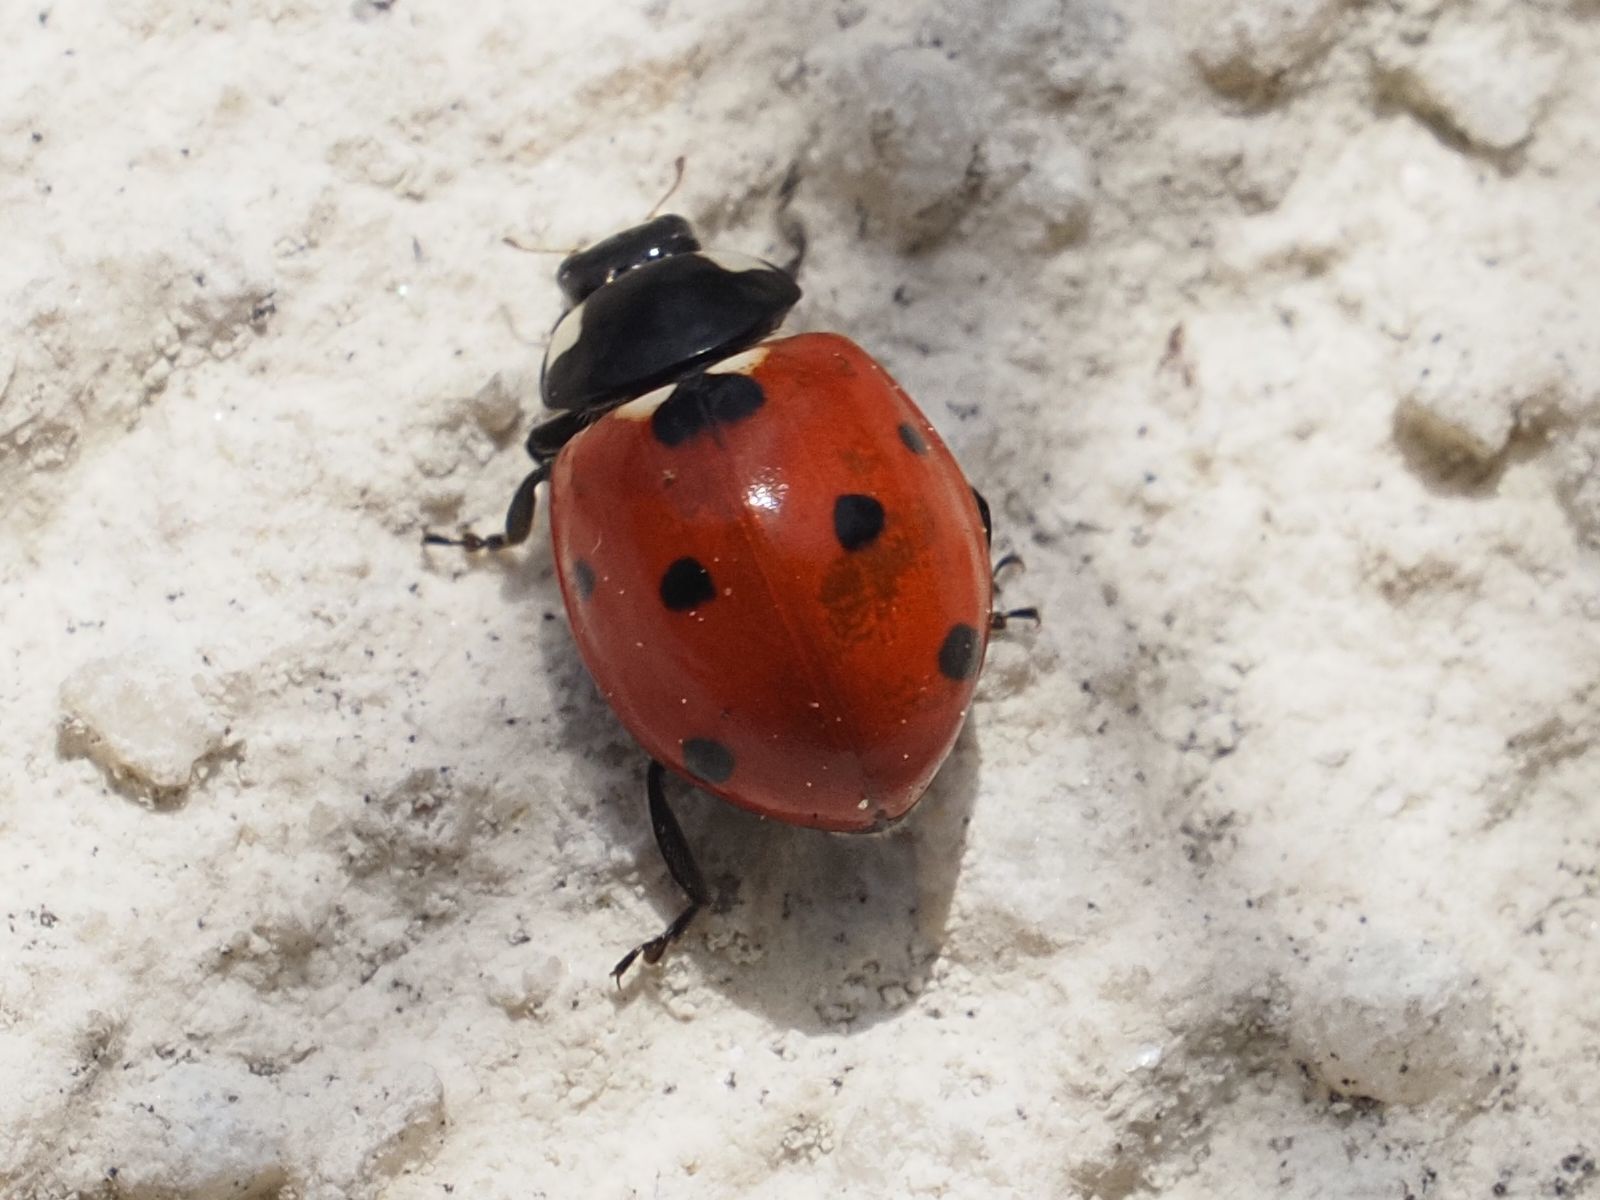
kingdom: Animalia
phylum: Arthropoda
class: Insecta
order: Coleoptera
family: Coccinellidae
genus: Coccinella
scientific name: Coccinella septempunctata
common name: Sevenspotted lady beetle
